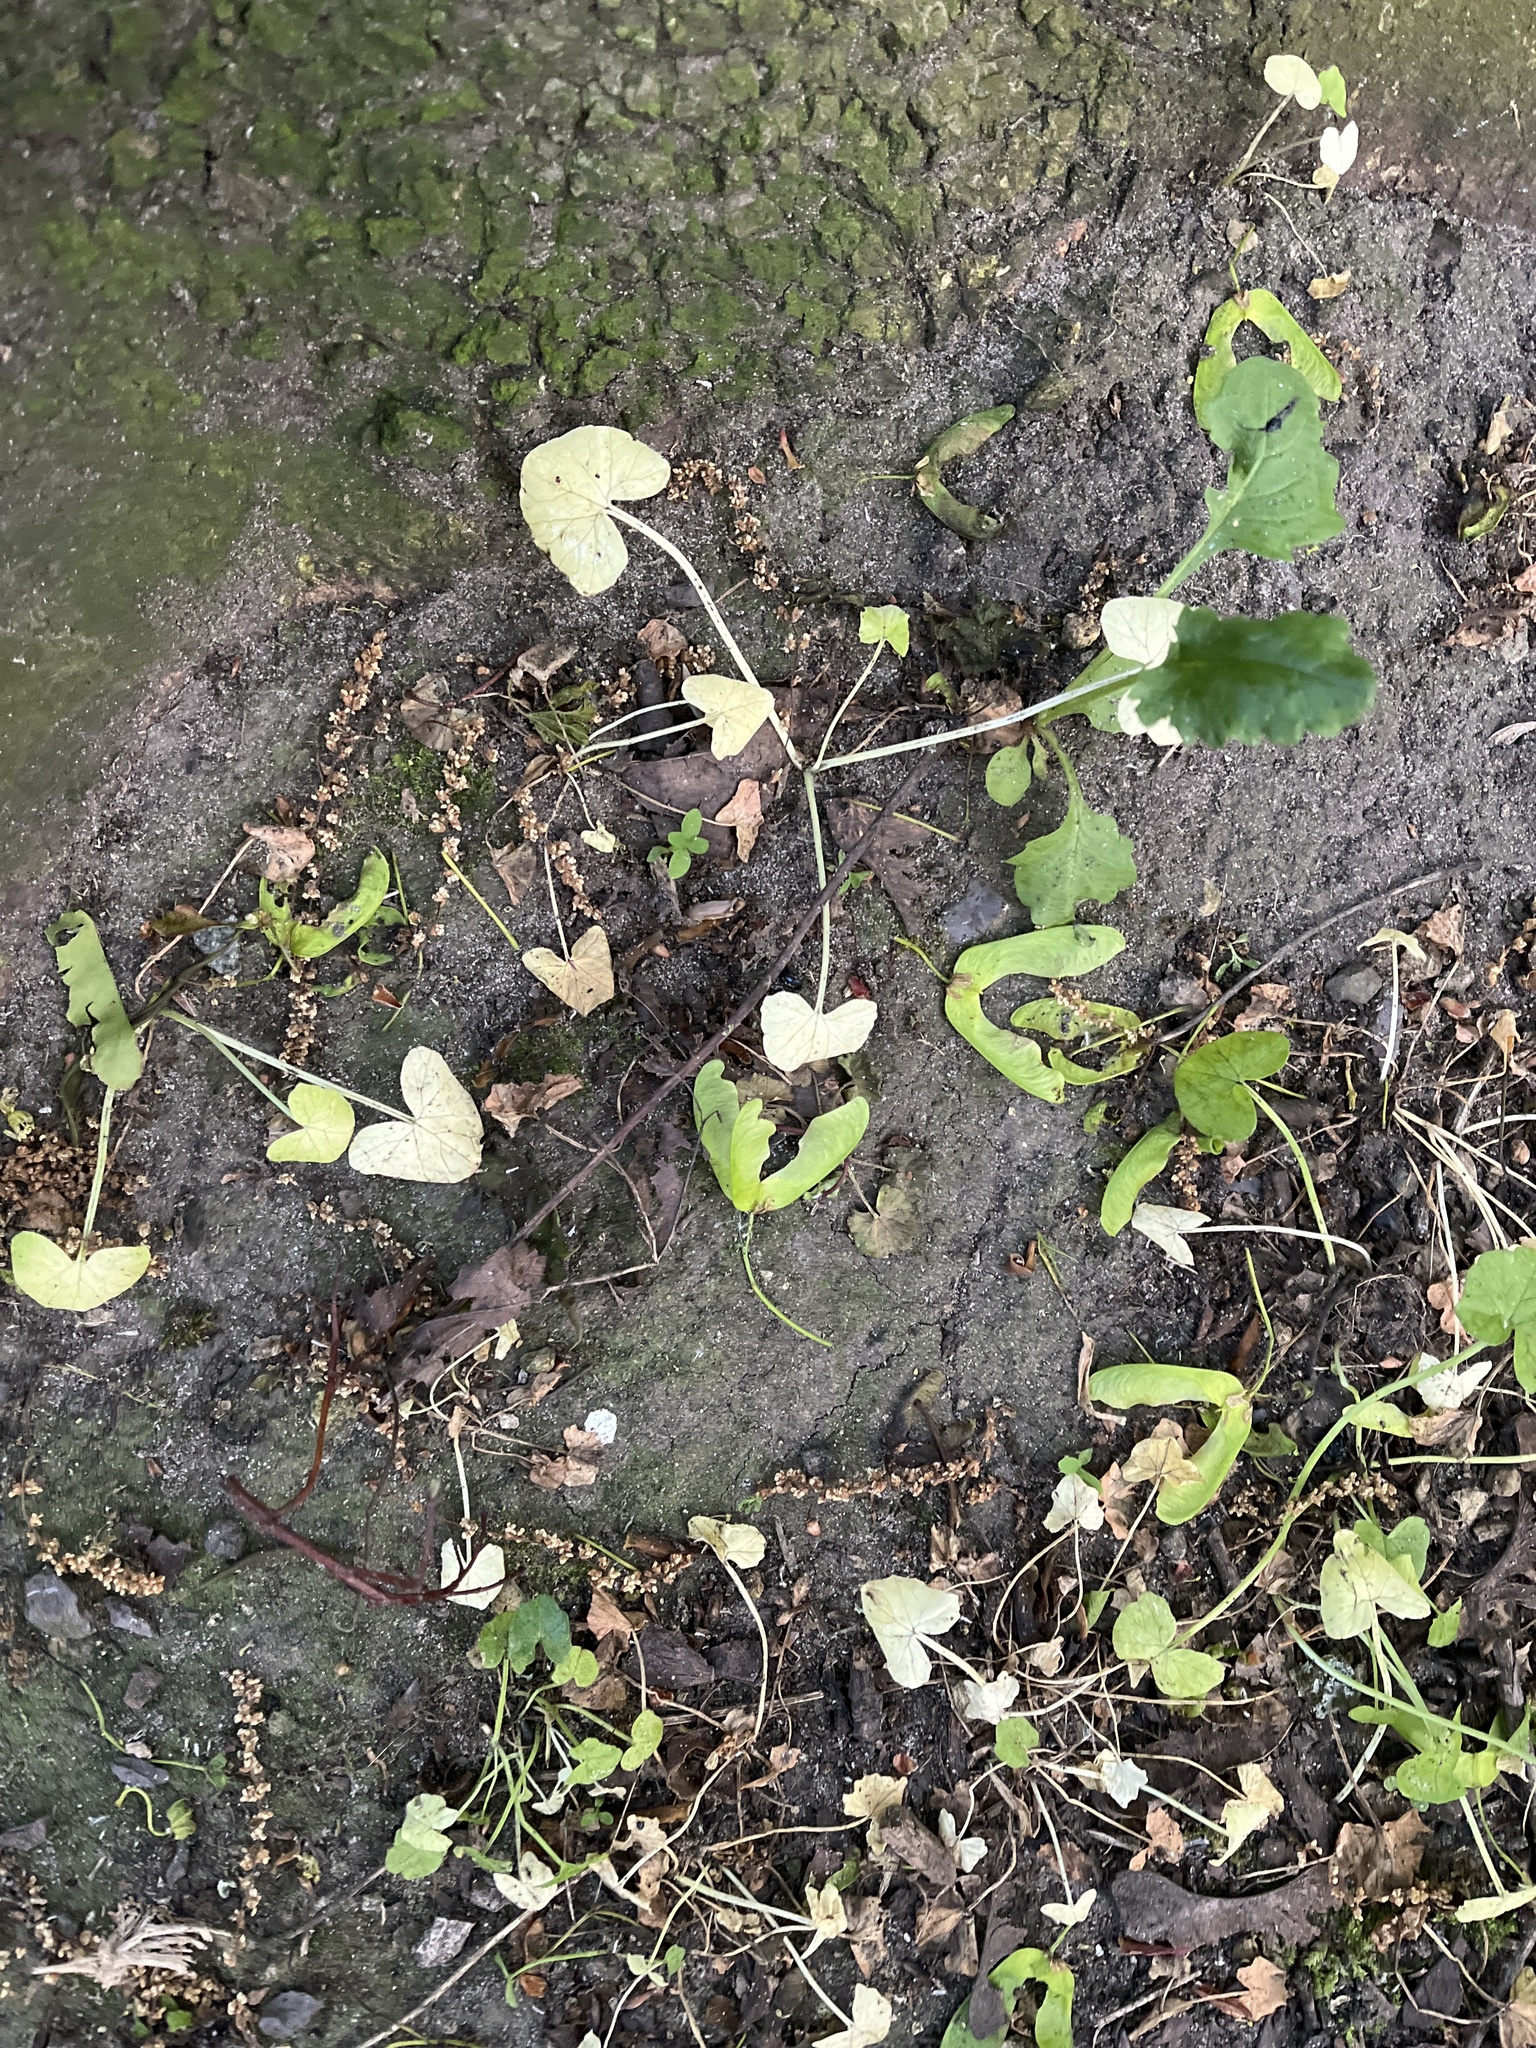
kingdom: Plantae
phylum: Tracheophyta
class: Magnoliopsida
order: Ranunculales
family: Ranunculaceae
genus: Ficaria
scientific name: Ficaria verna
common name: Lesser celandine
